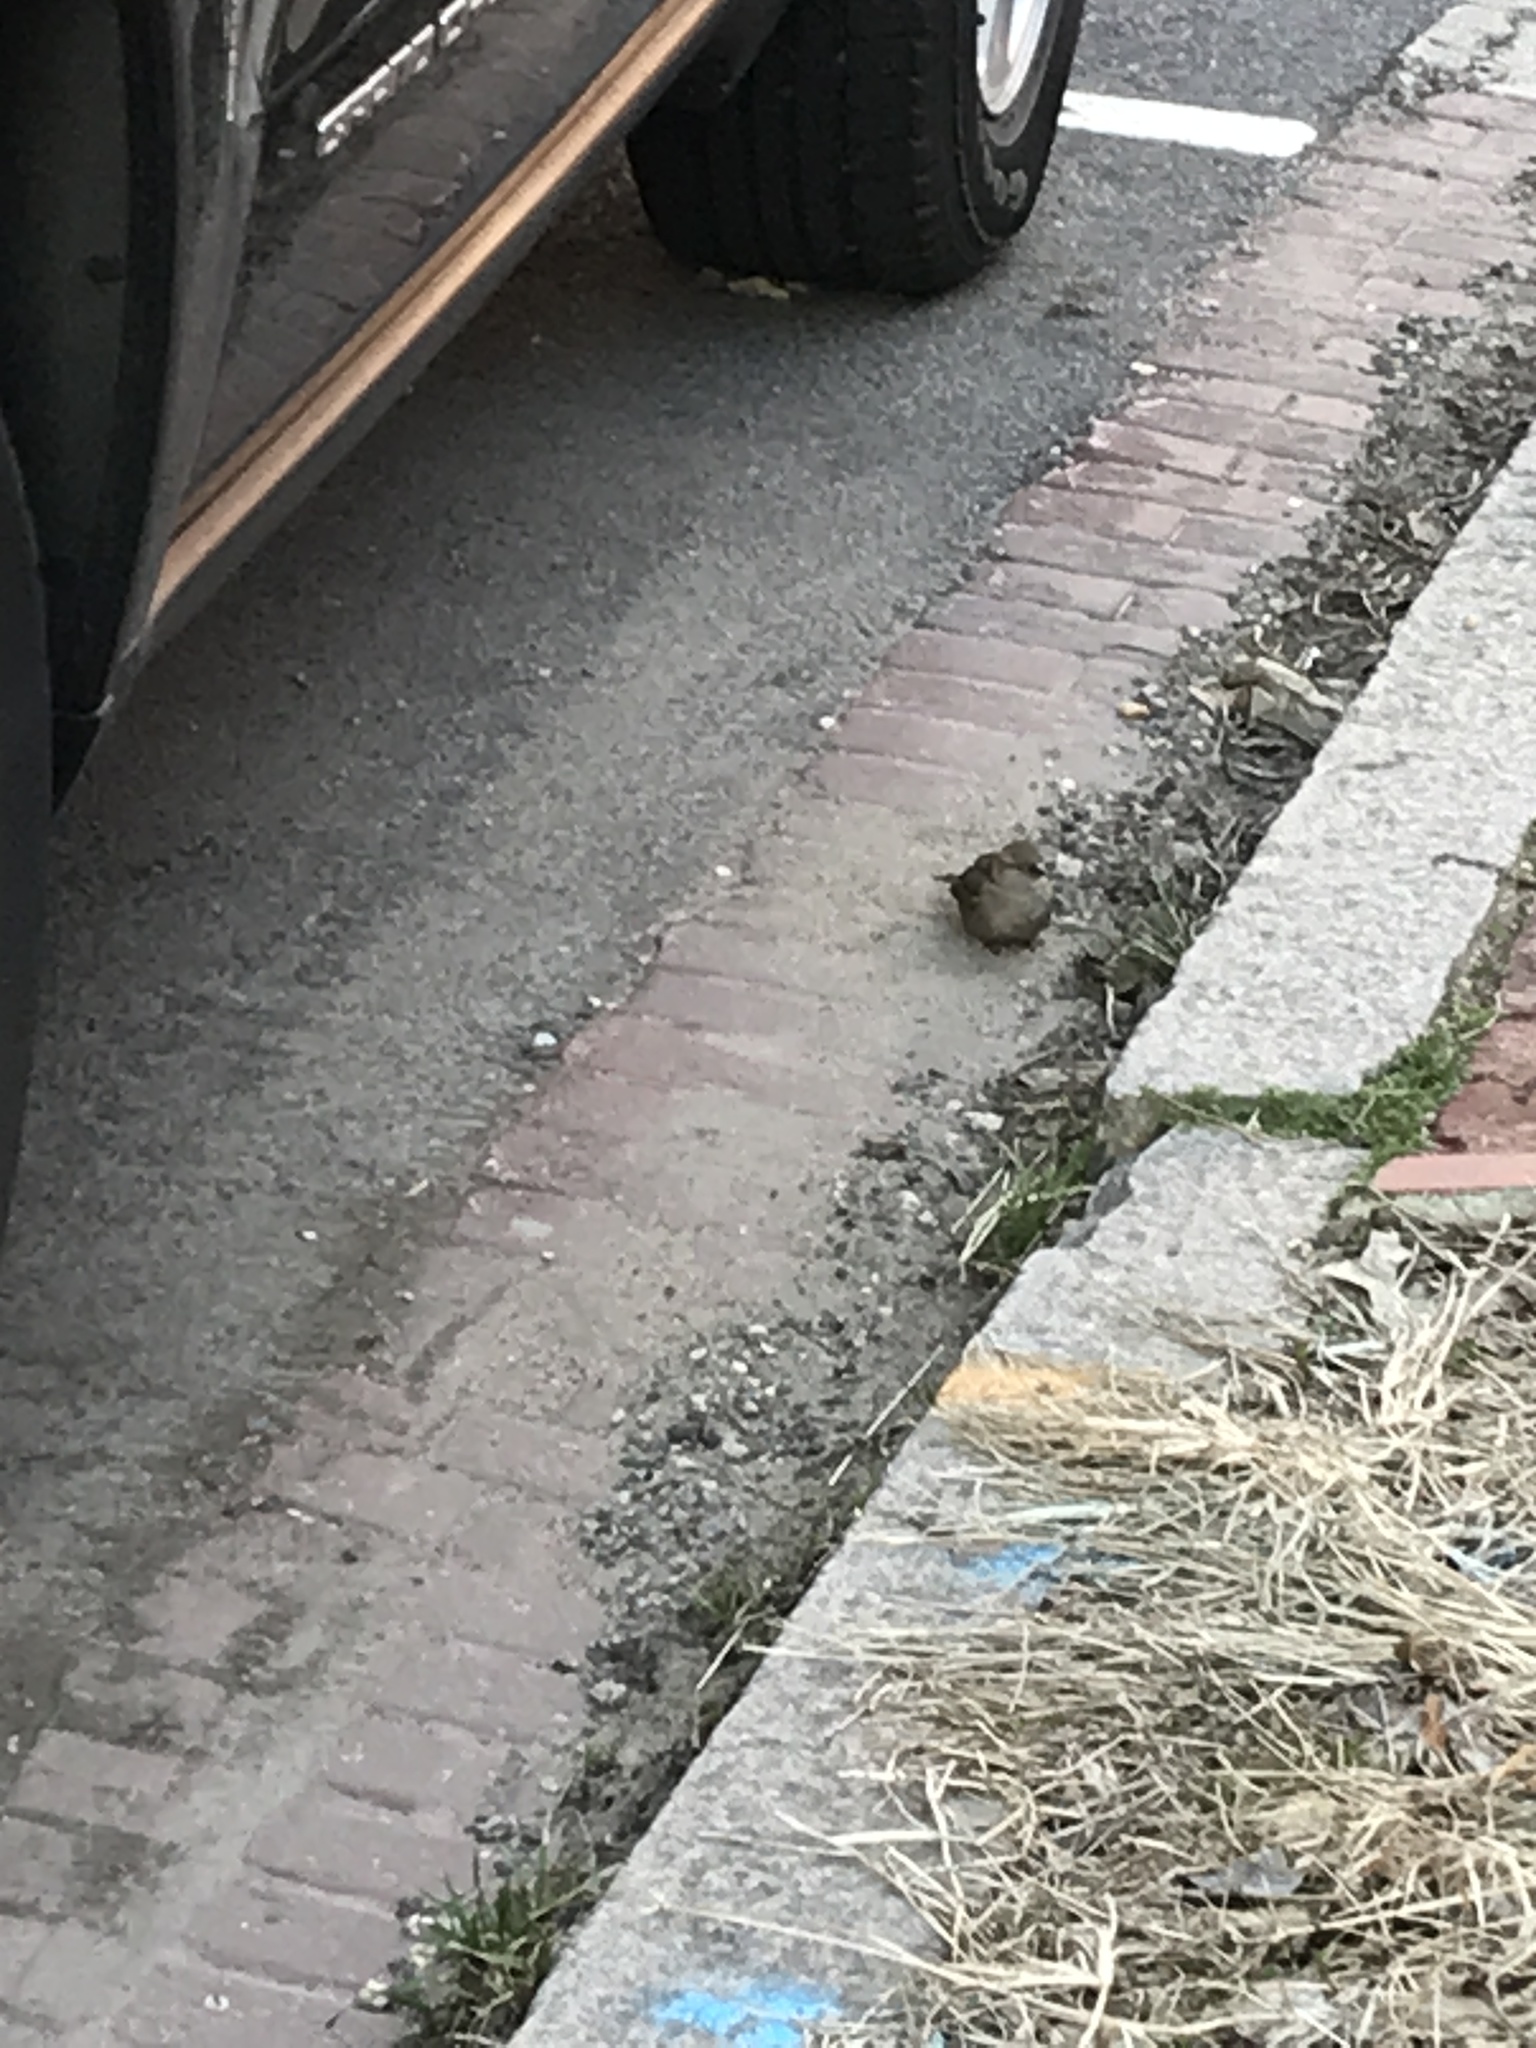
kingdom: Animalia
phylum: Chordata
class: Aves
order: Passeriformes
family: Passeridae
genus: Passer
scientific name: Passer domesticus
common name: House sparrow
